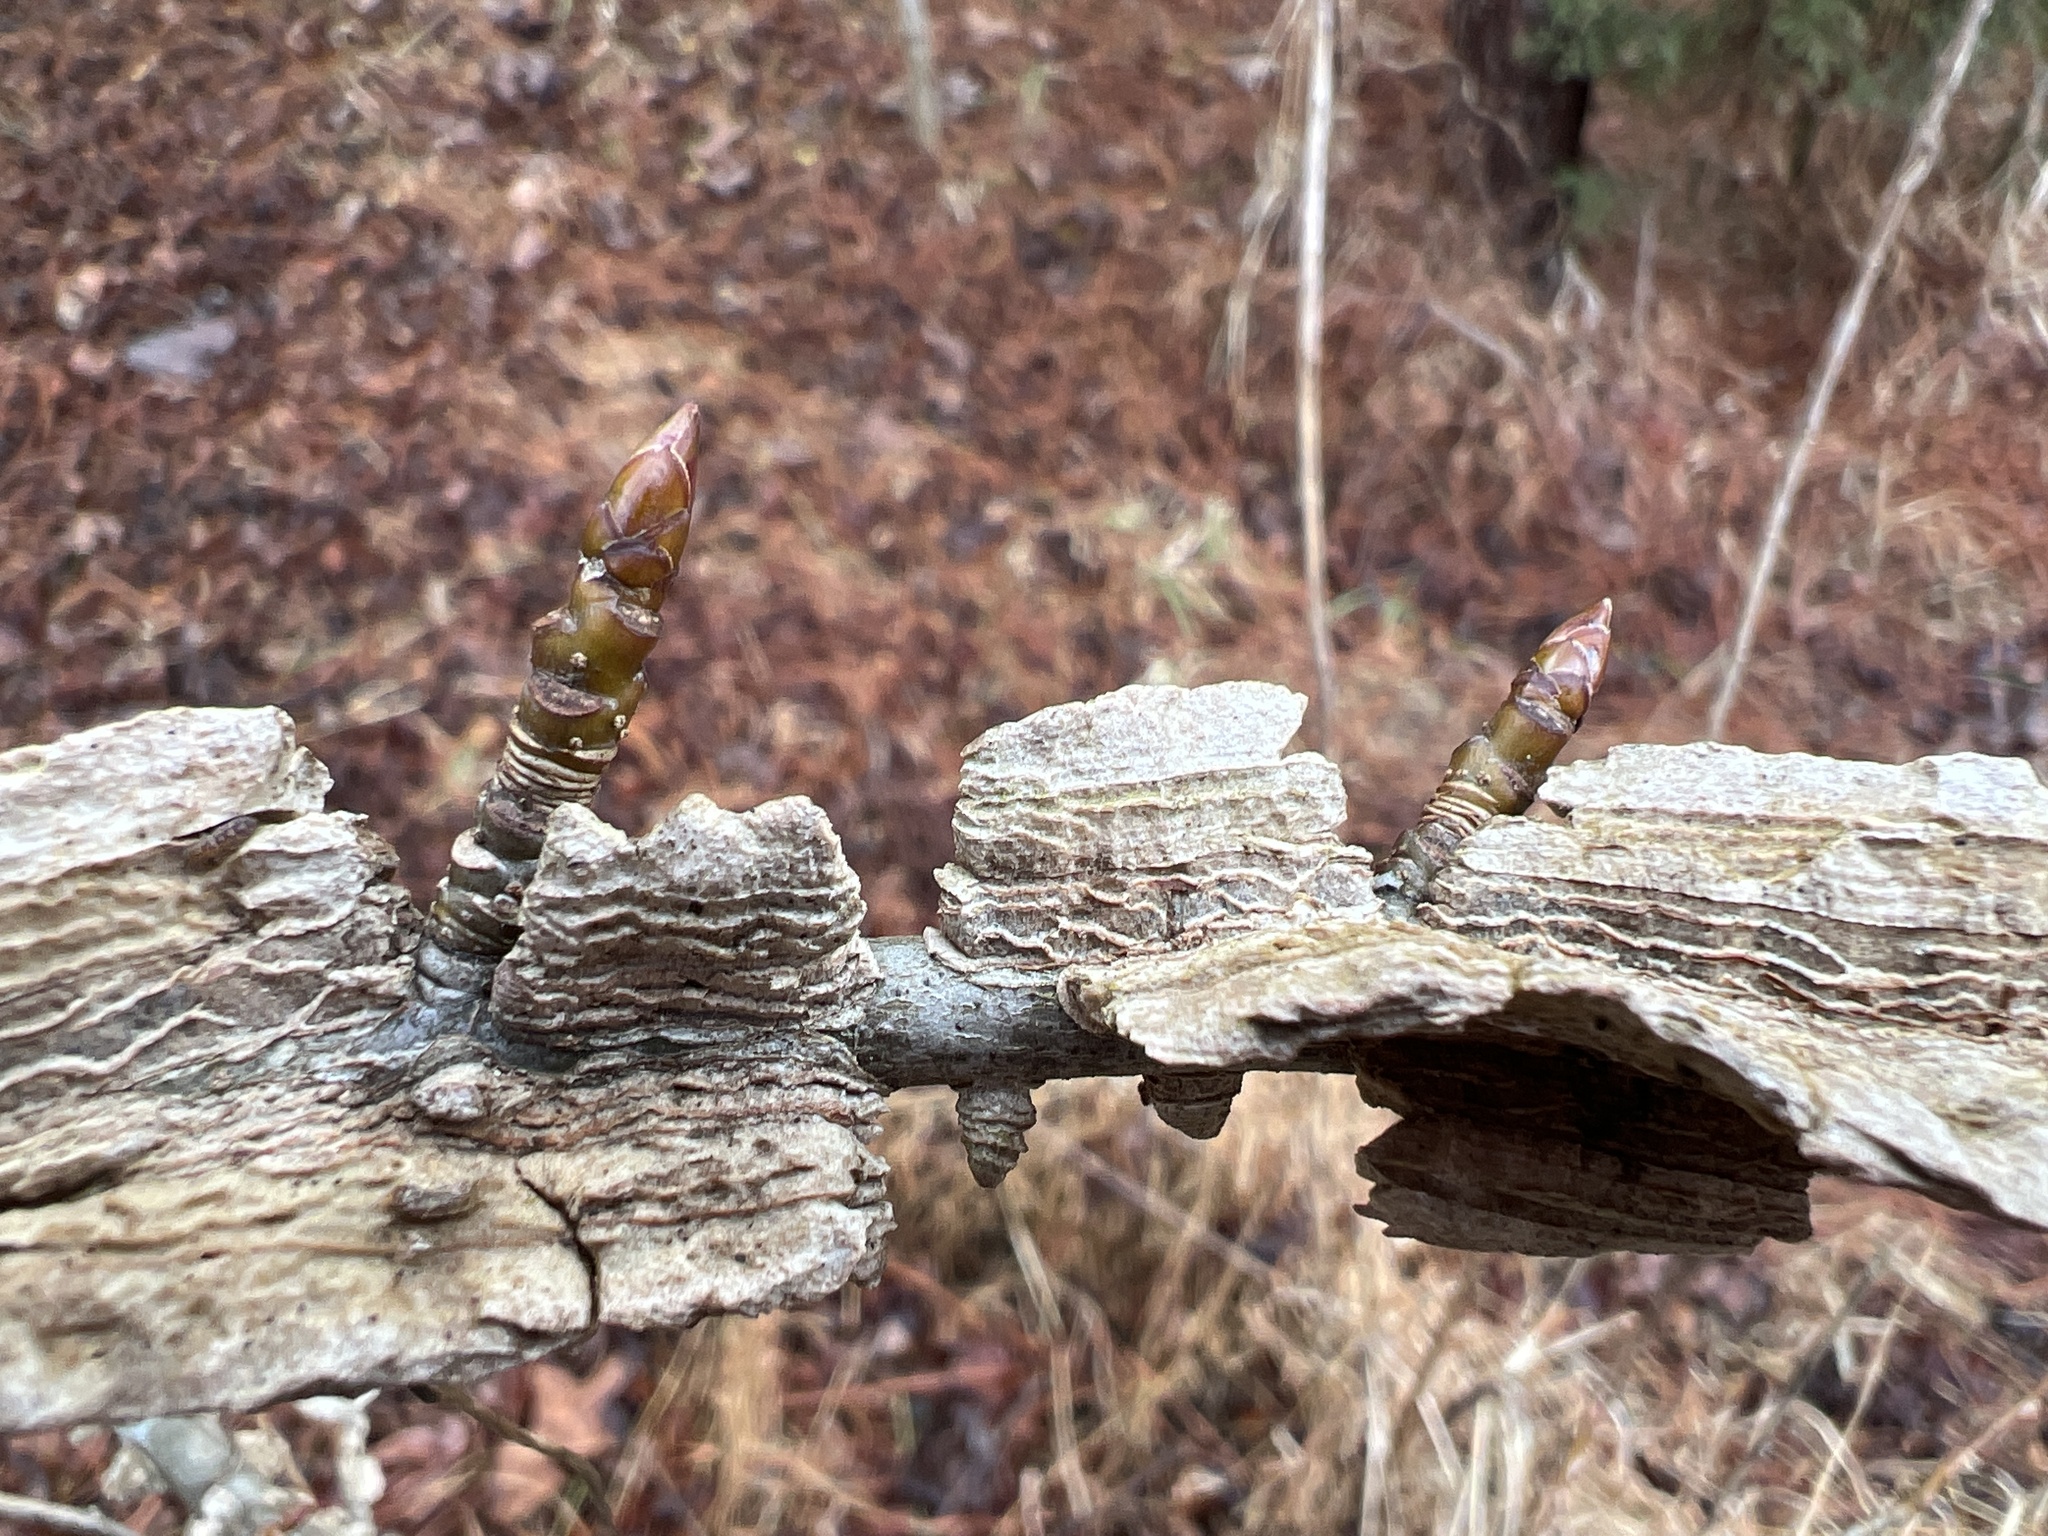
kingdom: Plantae
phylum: Tracheophyta
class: Magnoliopsida
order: Saxifragales
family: Altingiaceae
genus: Liquidambar
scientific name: Liquidambar styraciflua
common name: Sweet gum
